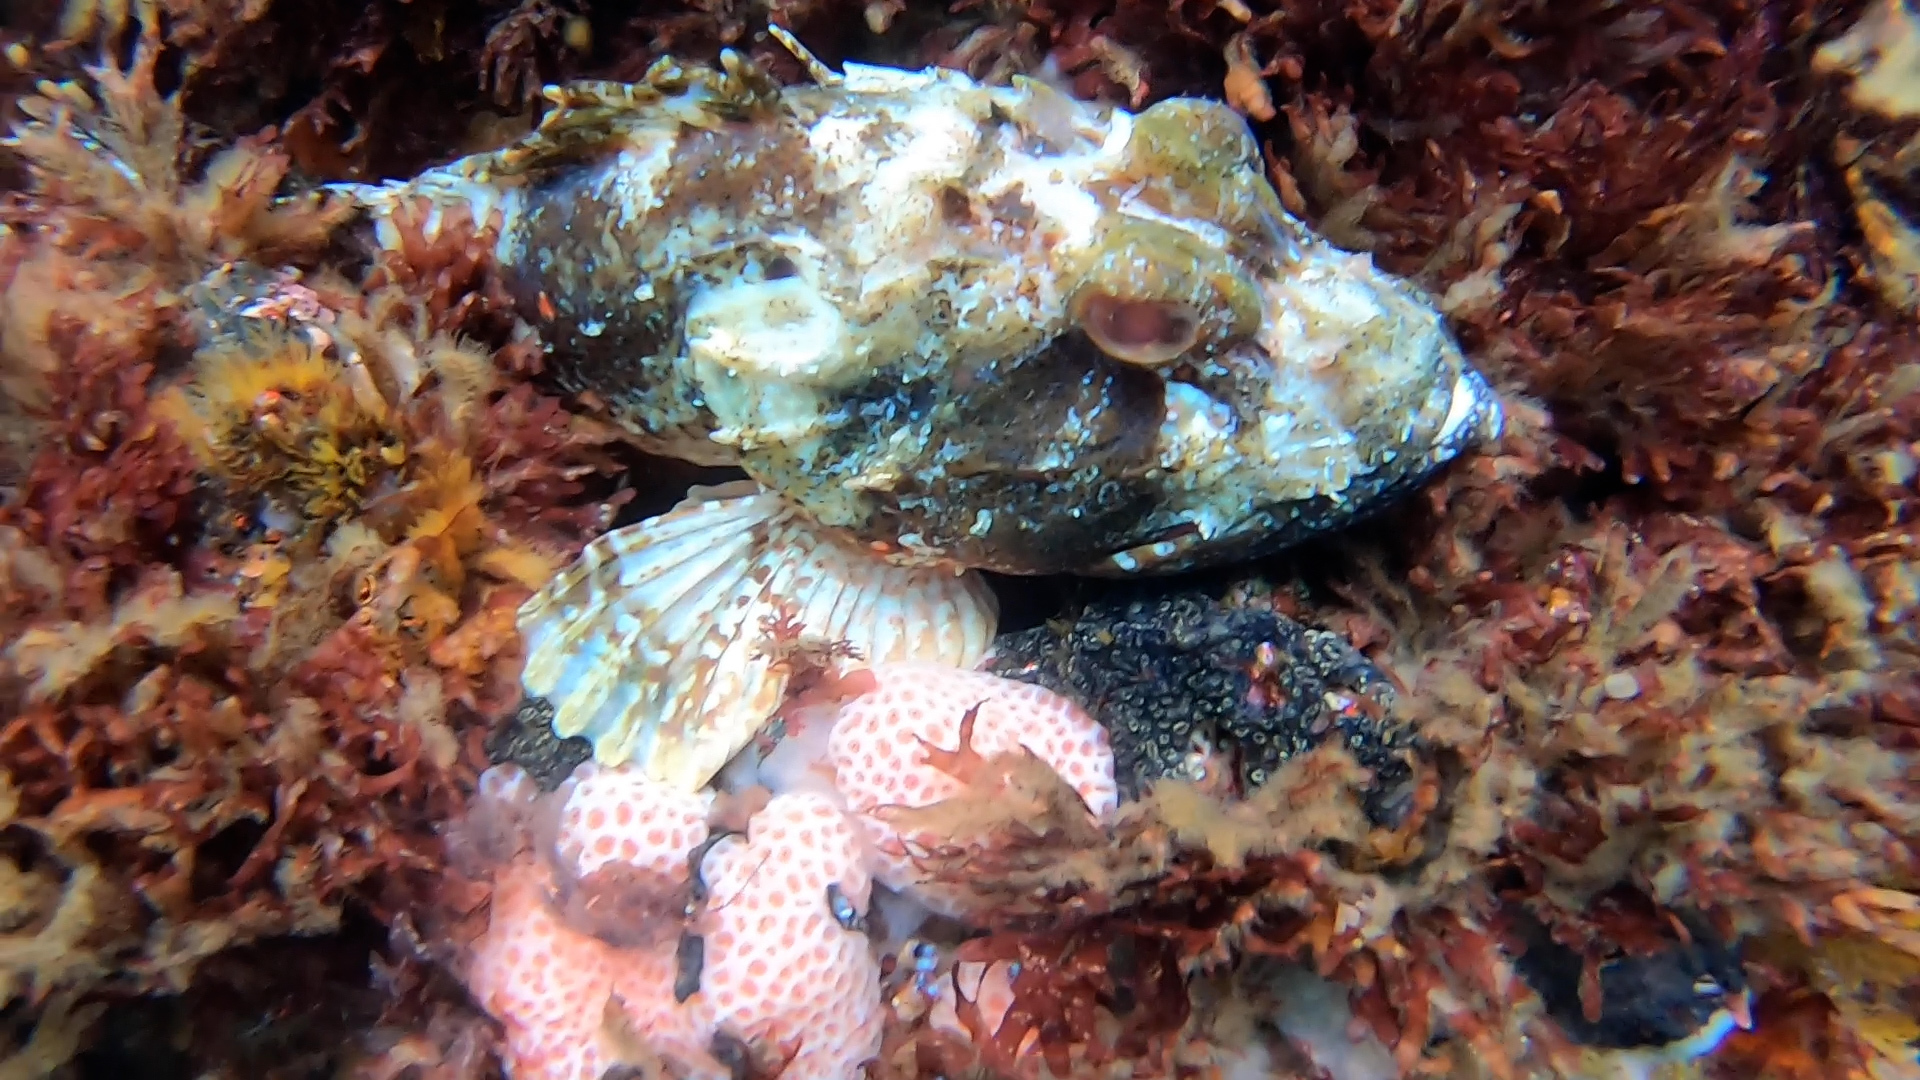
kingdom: Animalia
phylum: Chordata
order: Scorpaeniformes
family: Scorpaenidae
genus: Scorpaena
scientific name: Scorpaena cardinalis
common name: Cardinal scorpionfish
